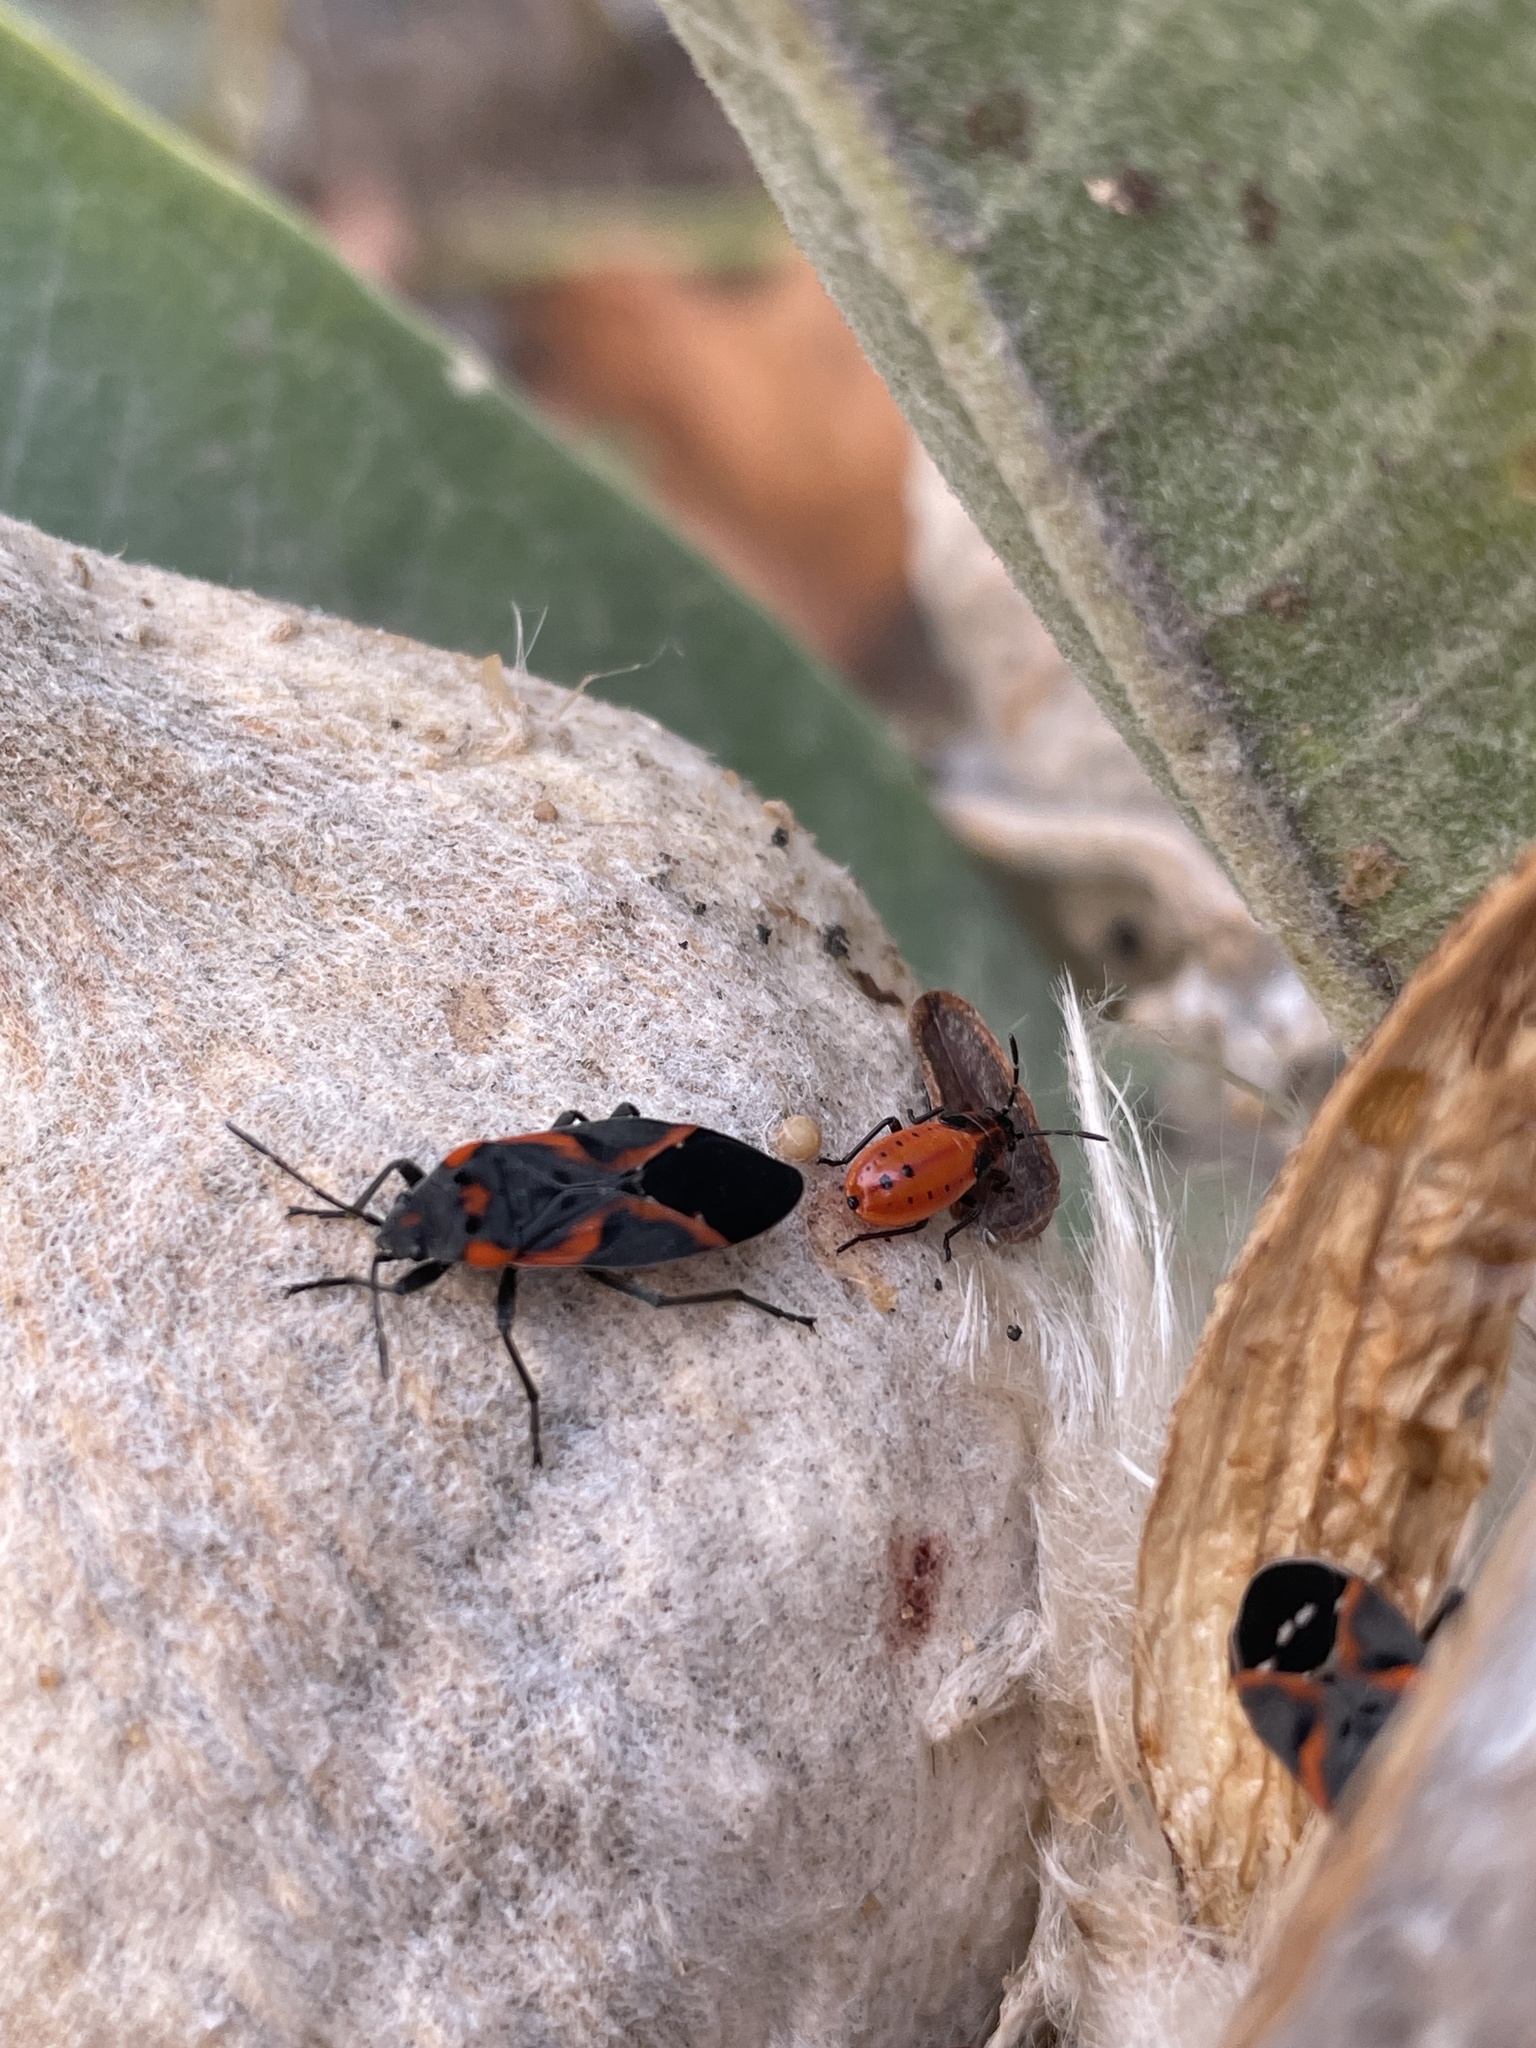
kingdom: Animalia
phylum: Arthropoda
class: Insecta
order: Hemiptera
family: Lygaeidae
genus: Lygaeus
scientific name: Lygaeus kalmii
